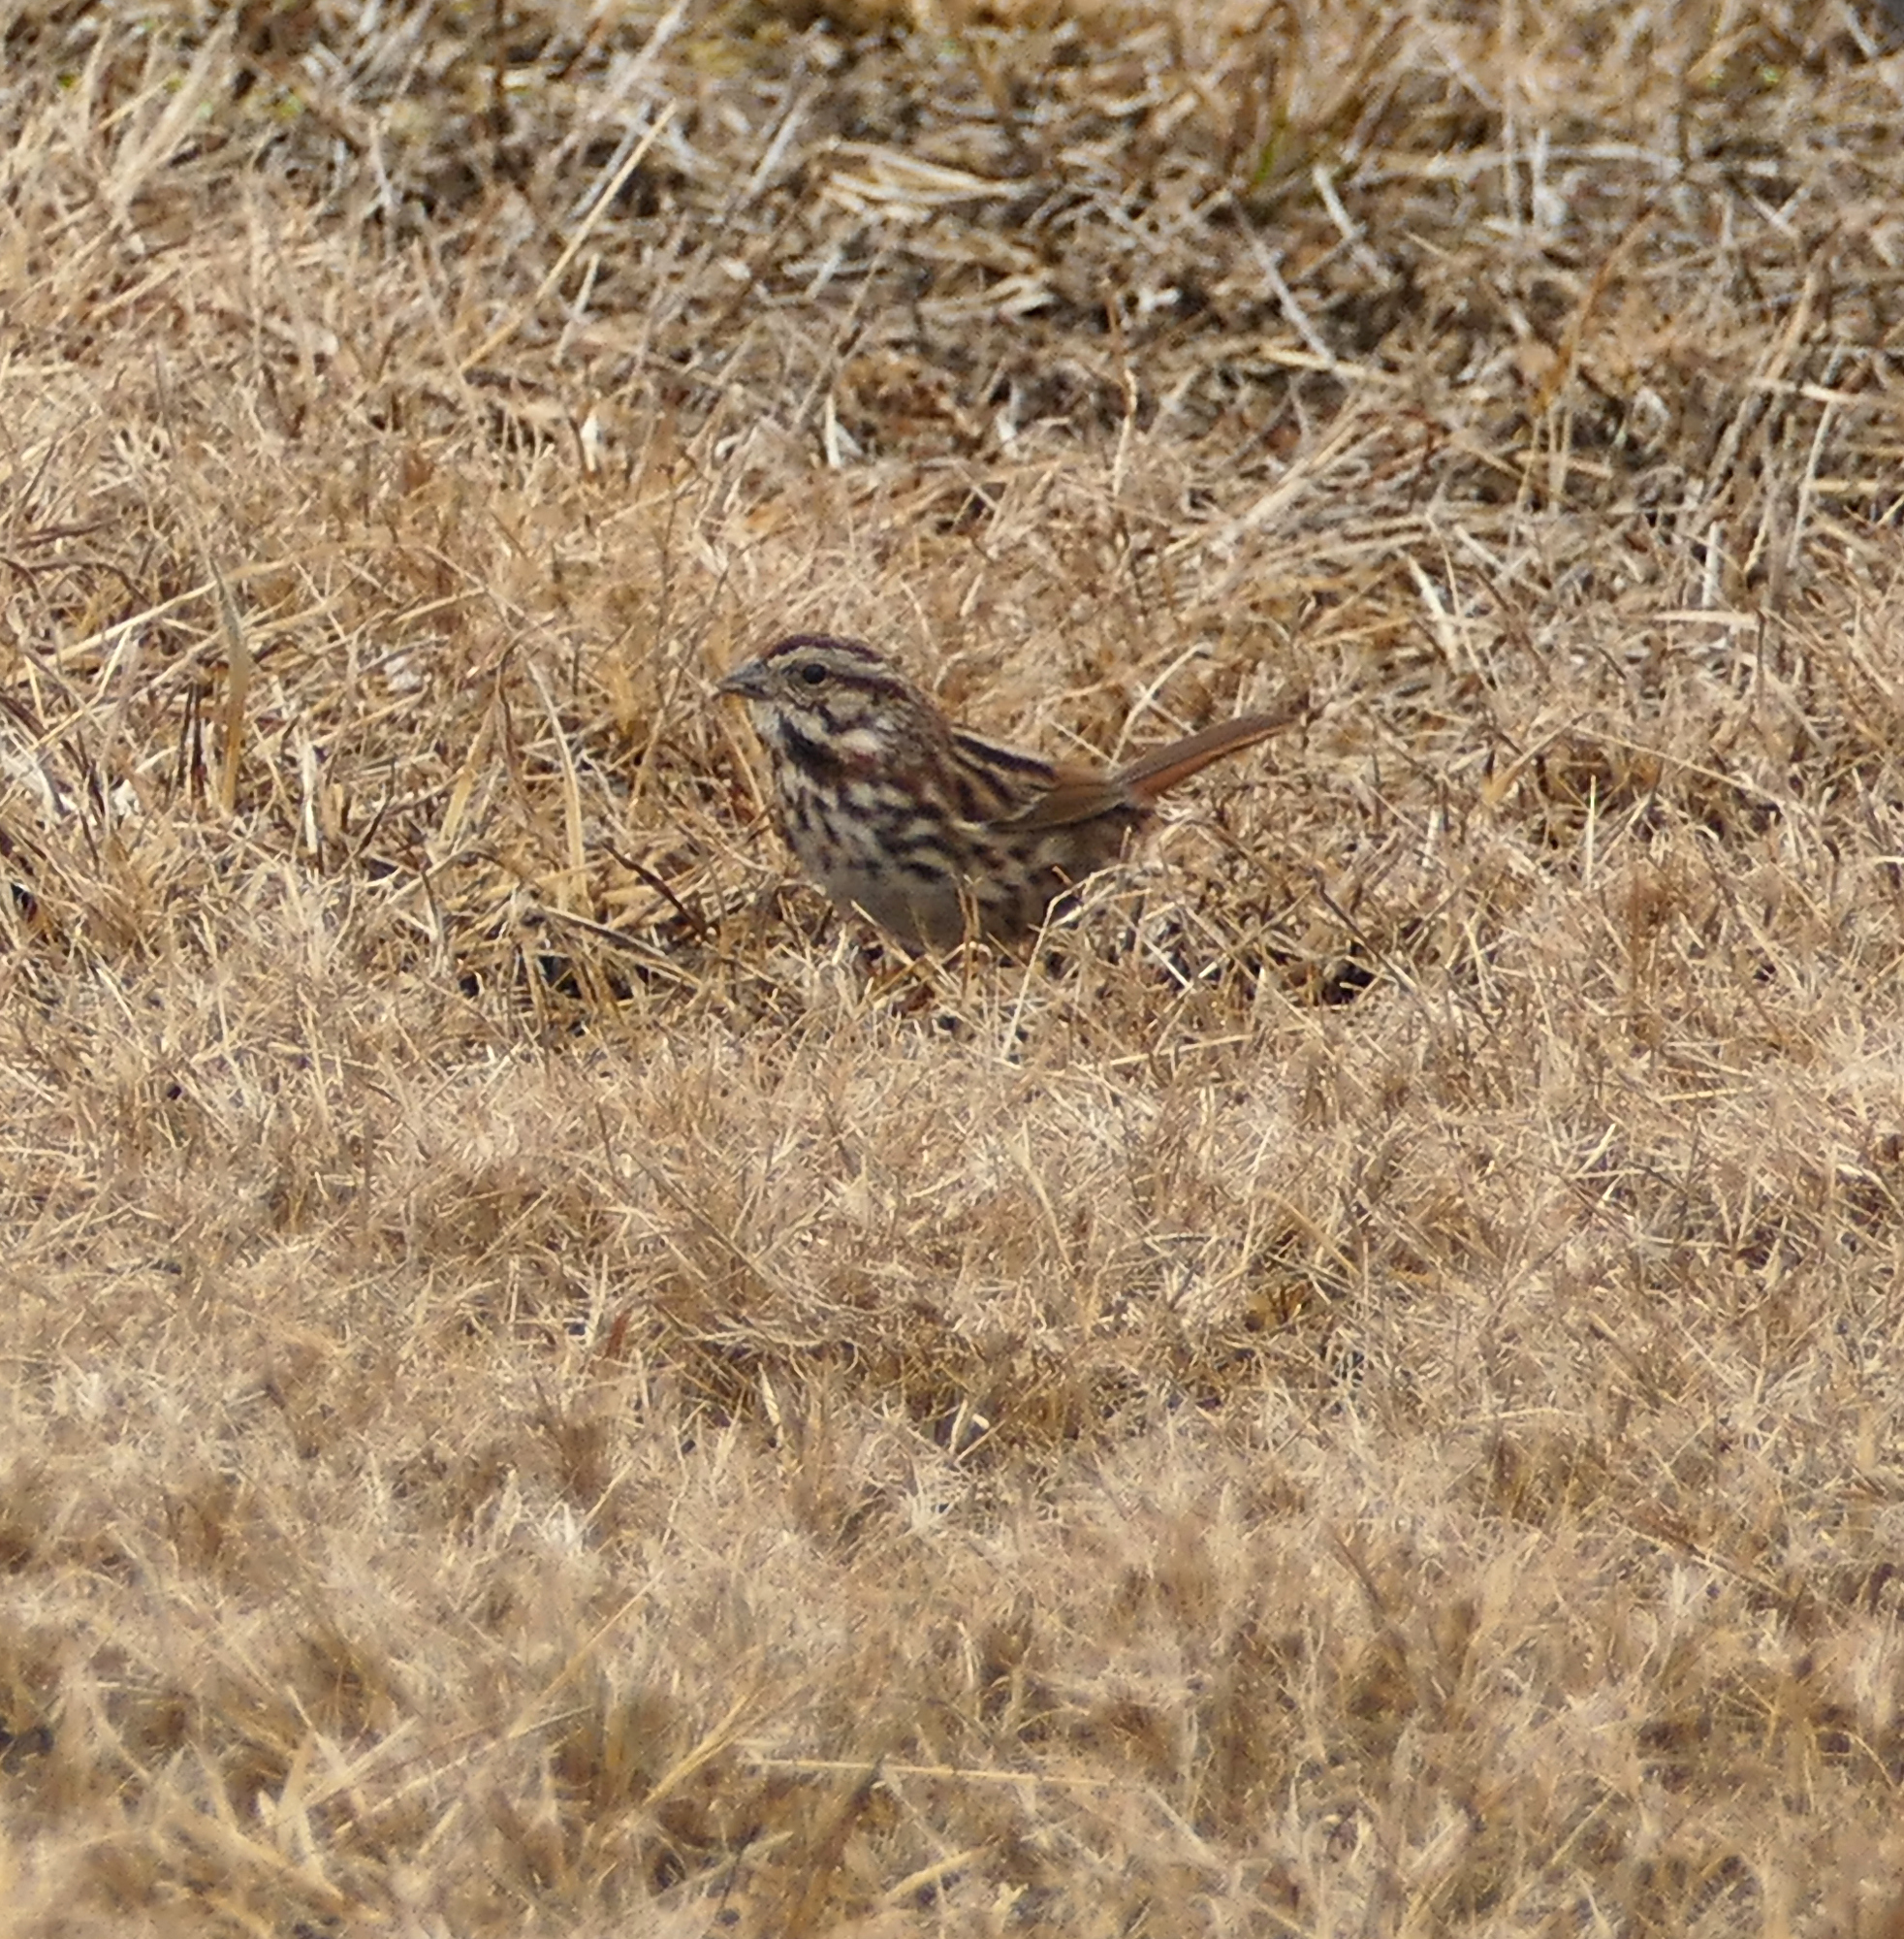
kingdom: Animalia
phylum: Chordata
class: Aves
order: Passeriformes
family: Passerellidae
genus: Melospiza
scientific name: Melospiza melodia
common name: Song sparrow
